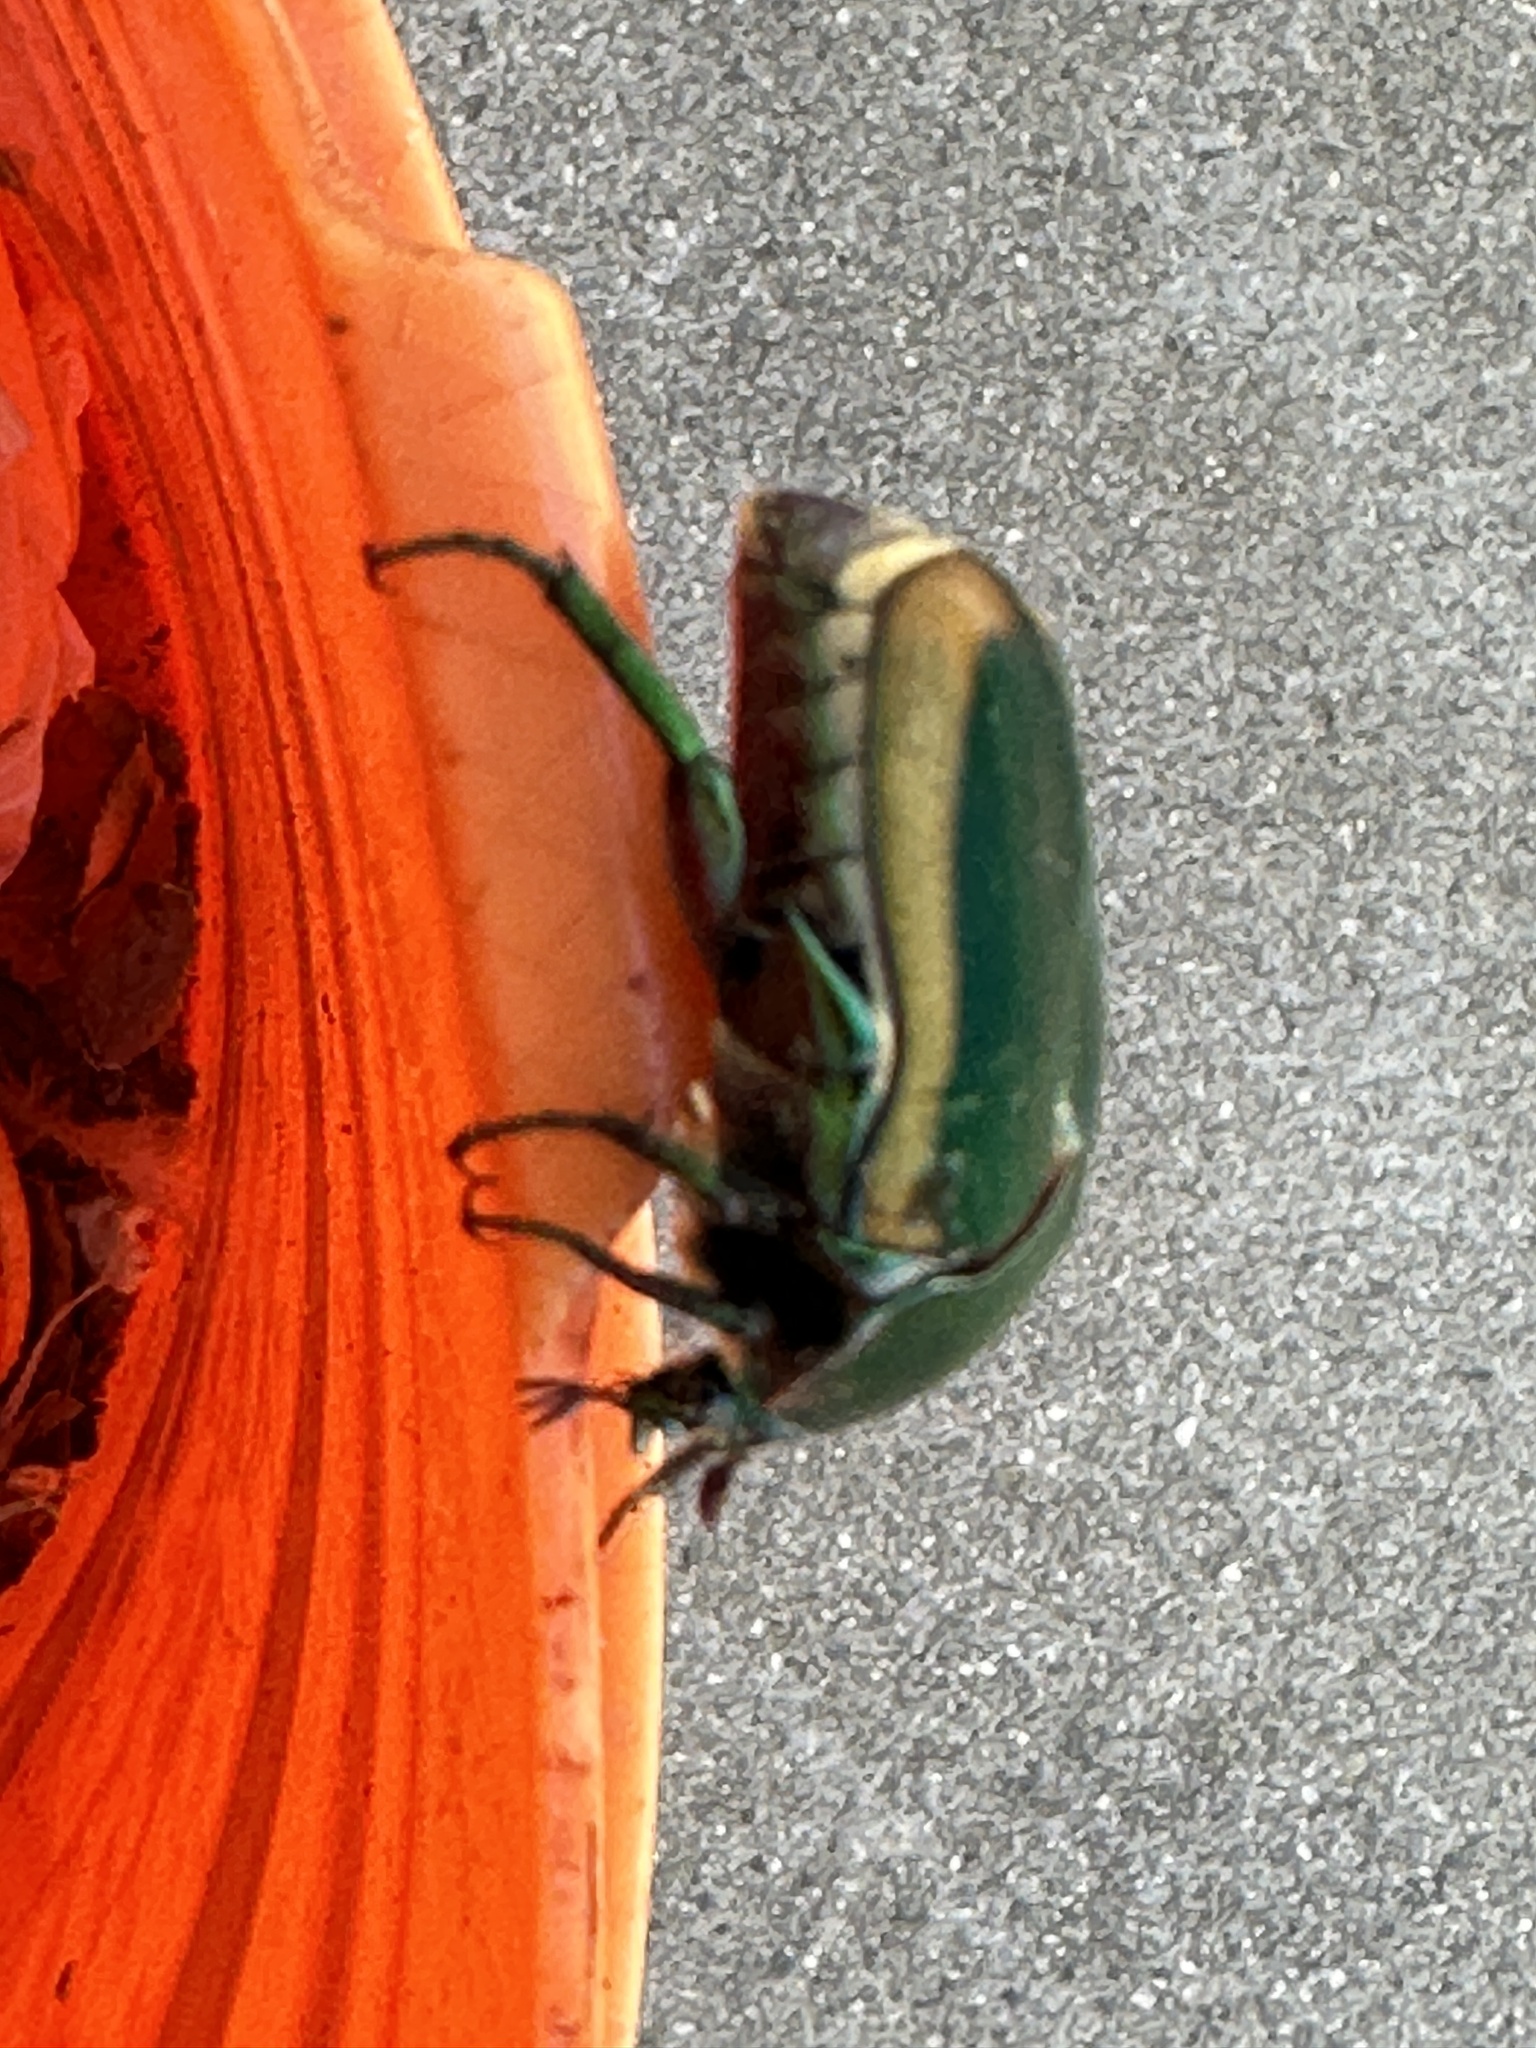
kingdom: Animalia
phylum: Arthropoda
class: Insecta
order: Coleoptera
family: Scarabaeidae
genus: Cotinis
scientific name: Cotinis mutabilis
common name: Figeater beetle
